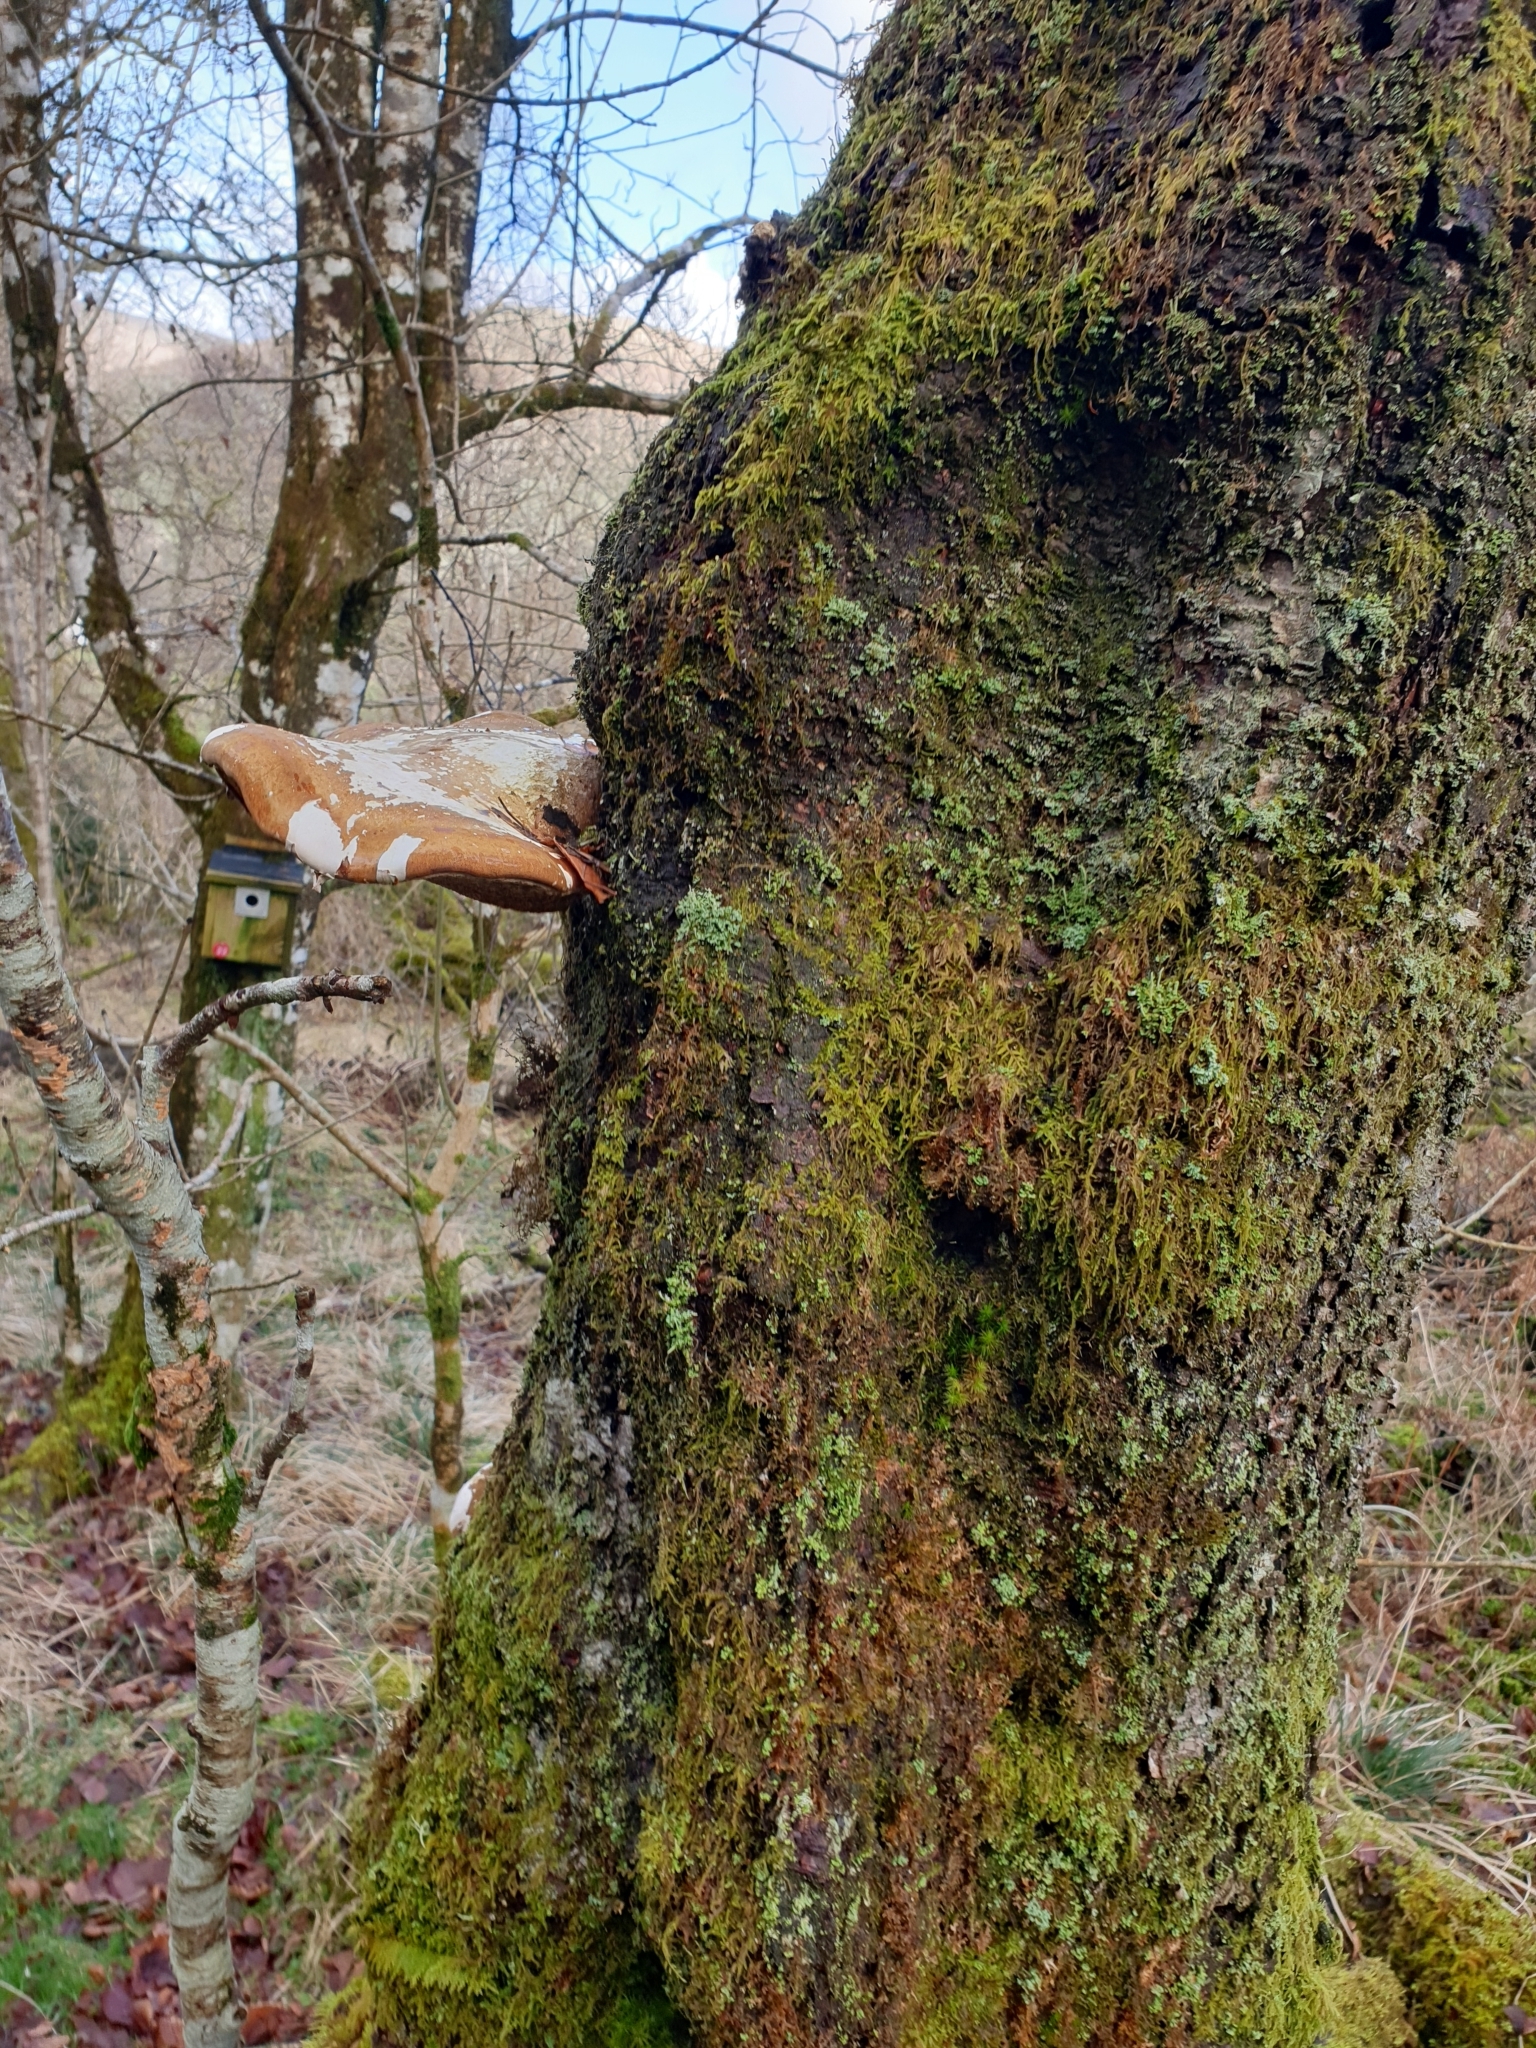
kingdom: Fungi
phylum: Basidiomycota
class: Agaricomycetes
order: Polyporales
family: Fomitopsidaceae
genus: Fomitopsis
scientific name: Fomitopsis betulina
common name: Birch polypore
